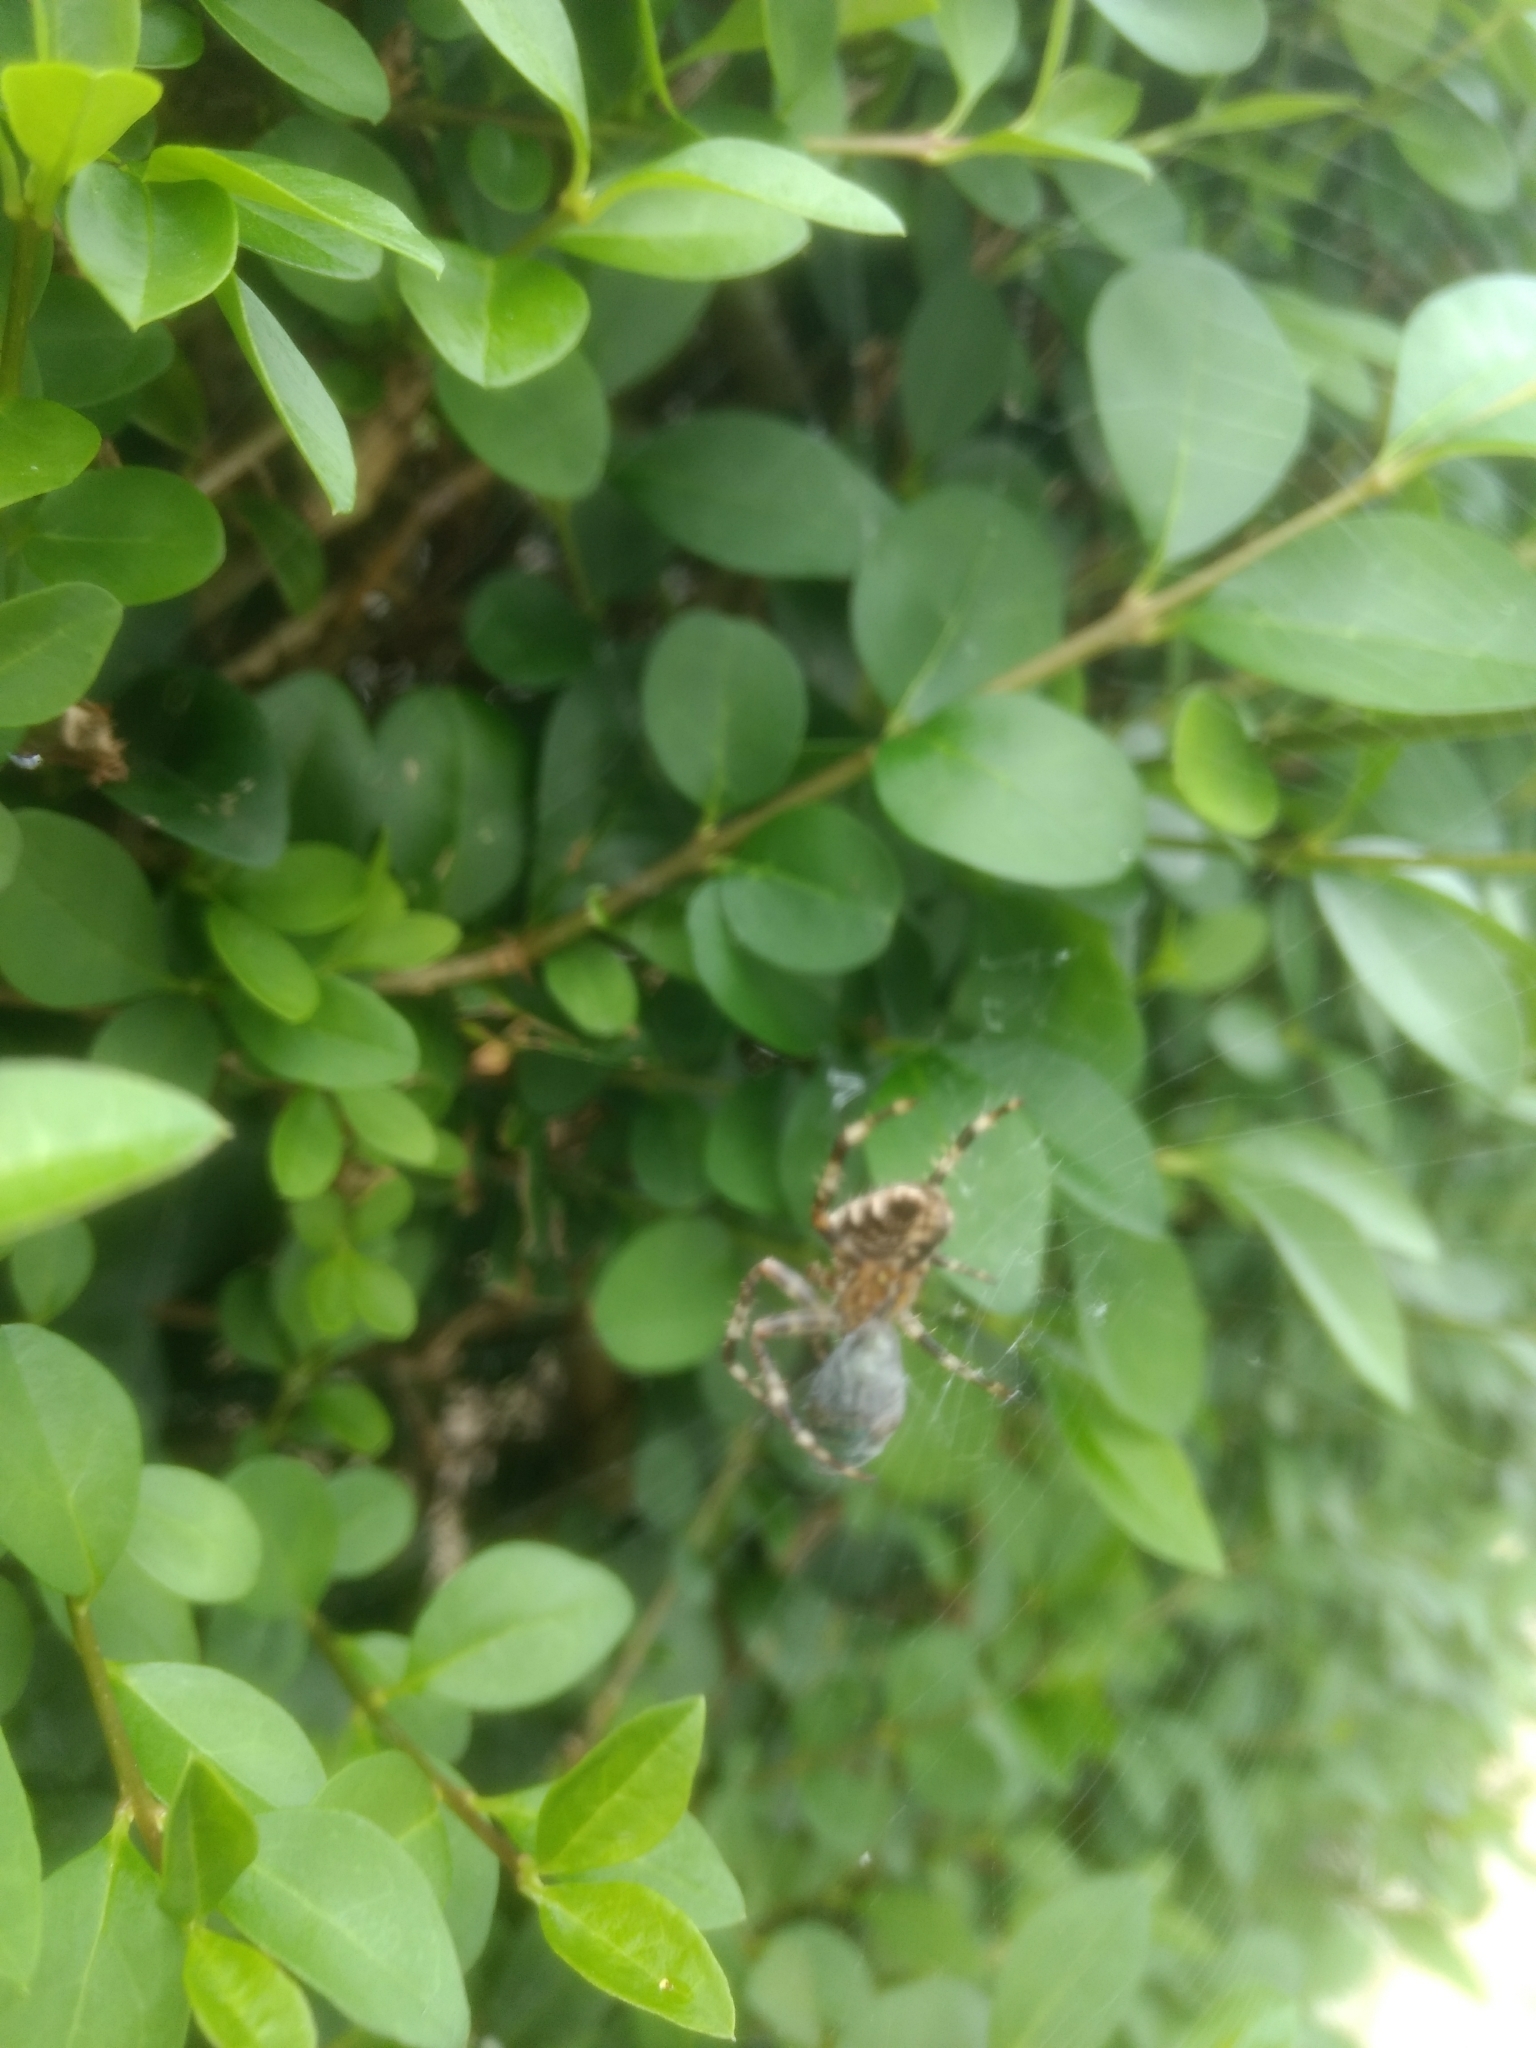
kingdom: Animalia
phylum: Arthropoda
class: Arachnida
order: Araneae
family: Araneidae
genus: Araneus
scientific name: Araneus diadematus
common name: Cross orbweaver
